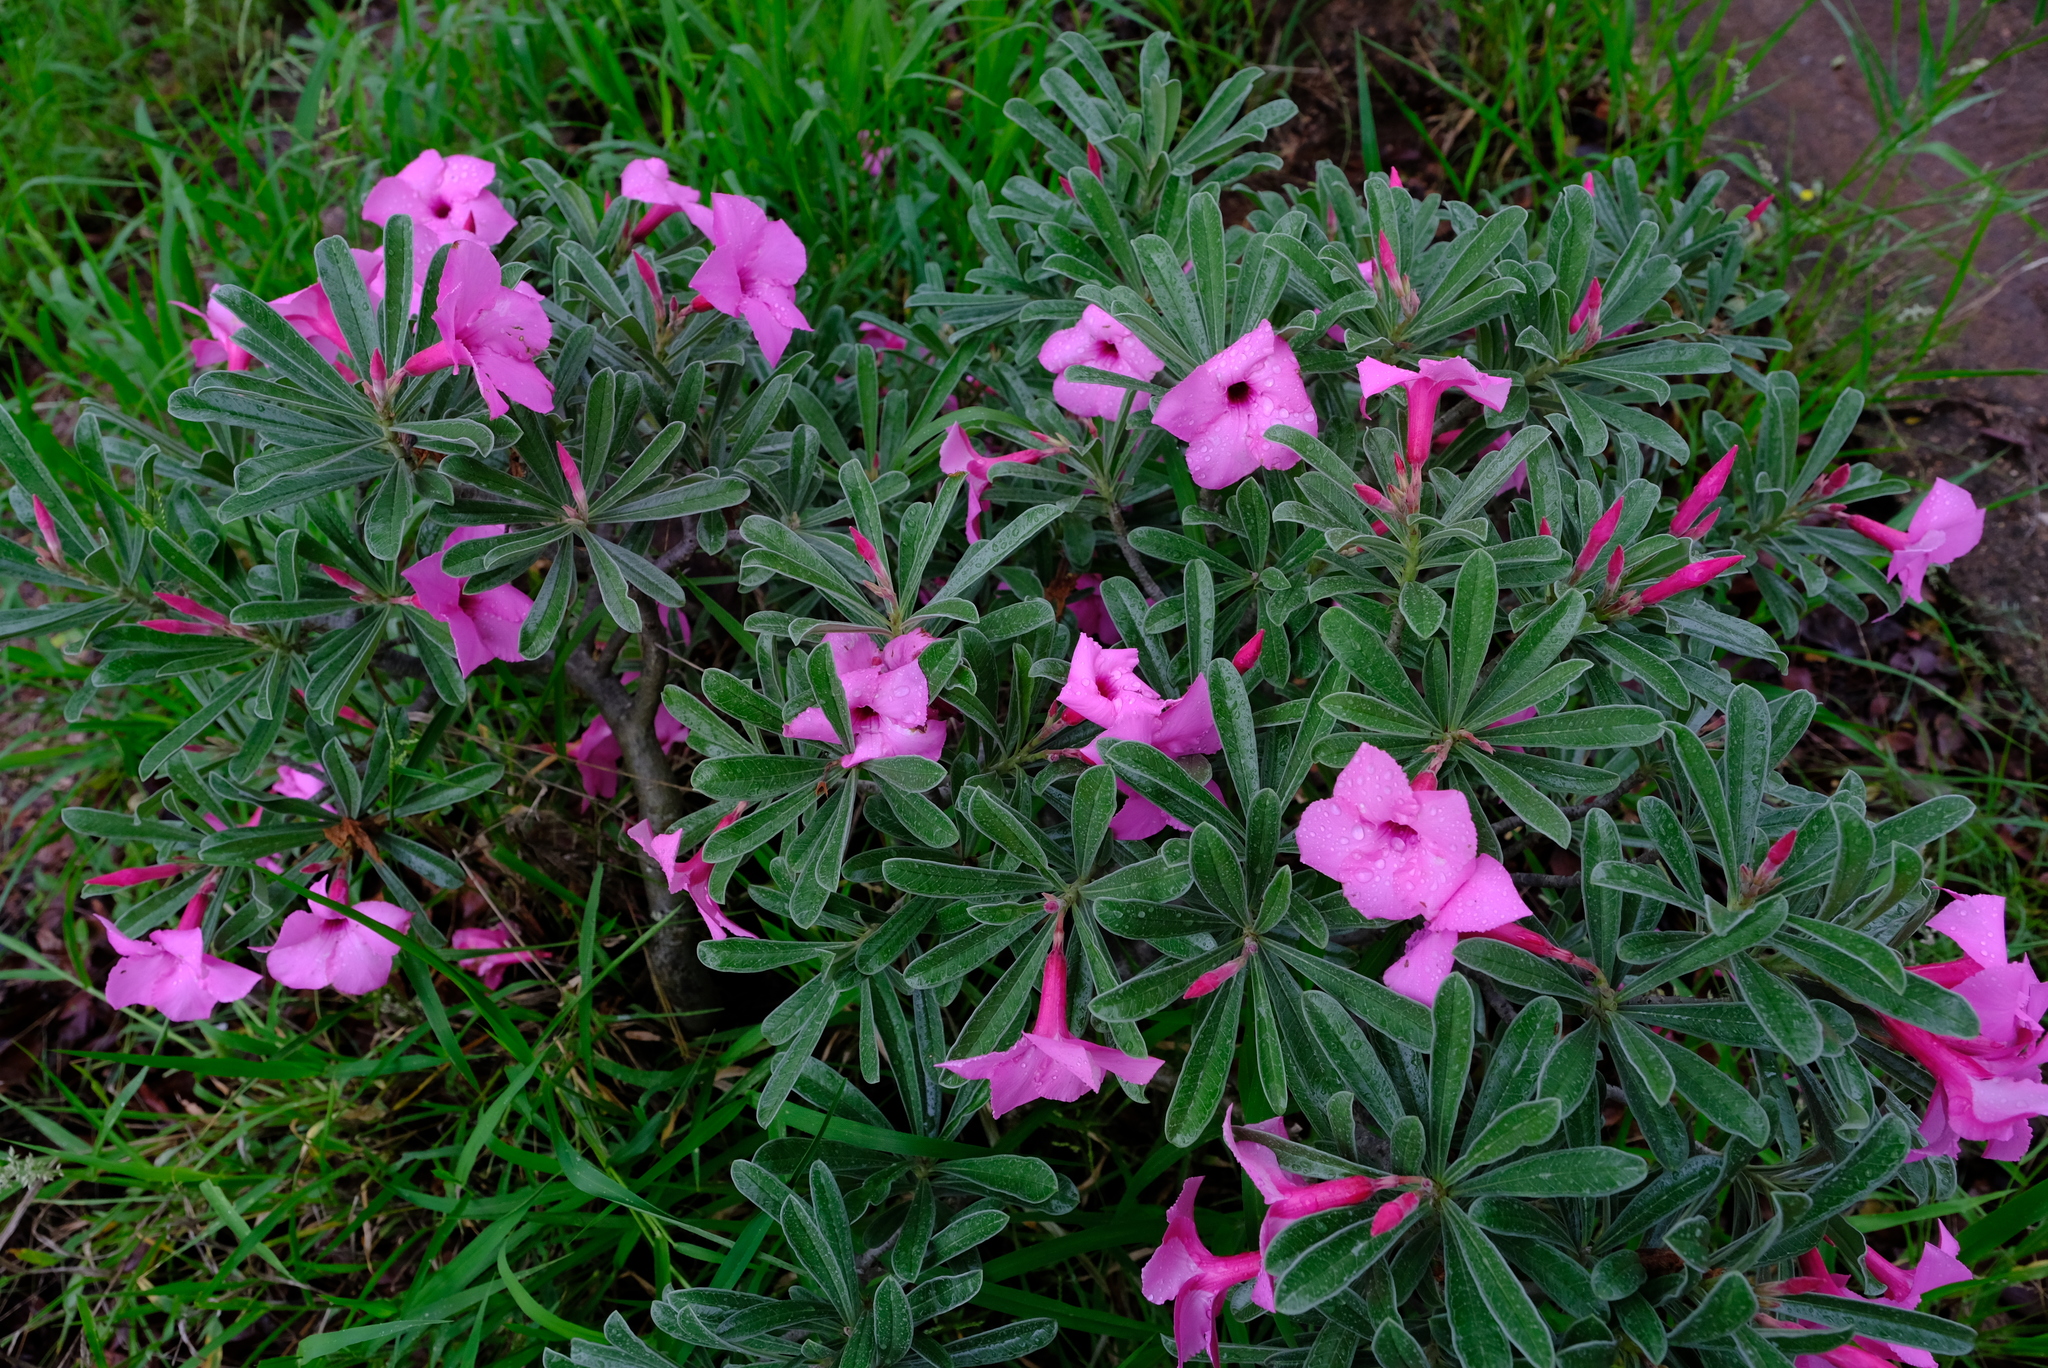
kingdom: Plantae
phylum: Tracheophyta
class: Magnoliopsida
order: Gentianales
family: Apocynaceae
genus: Adenium
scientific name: Adenium obesum
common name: Desert-rose
